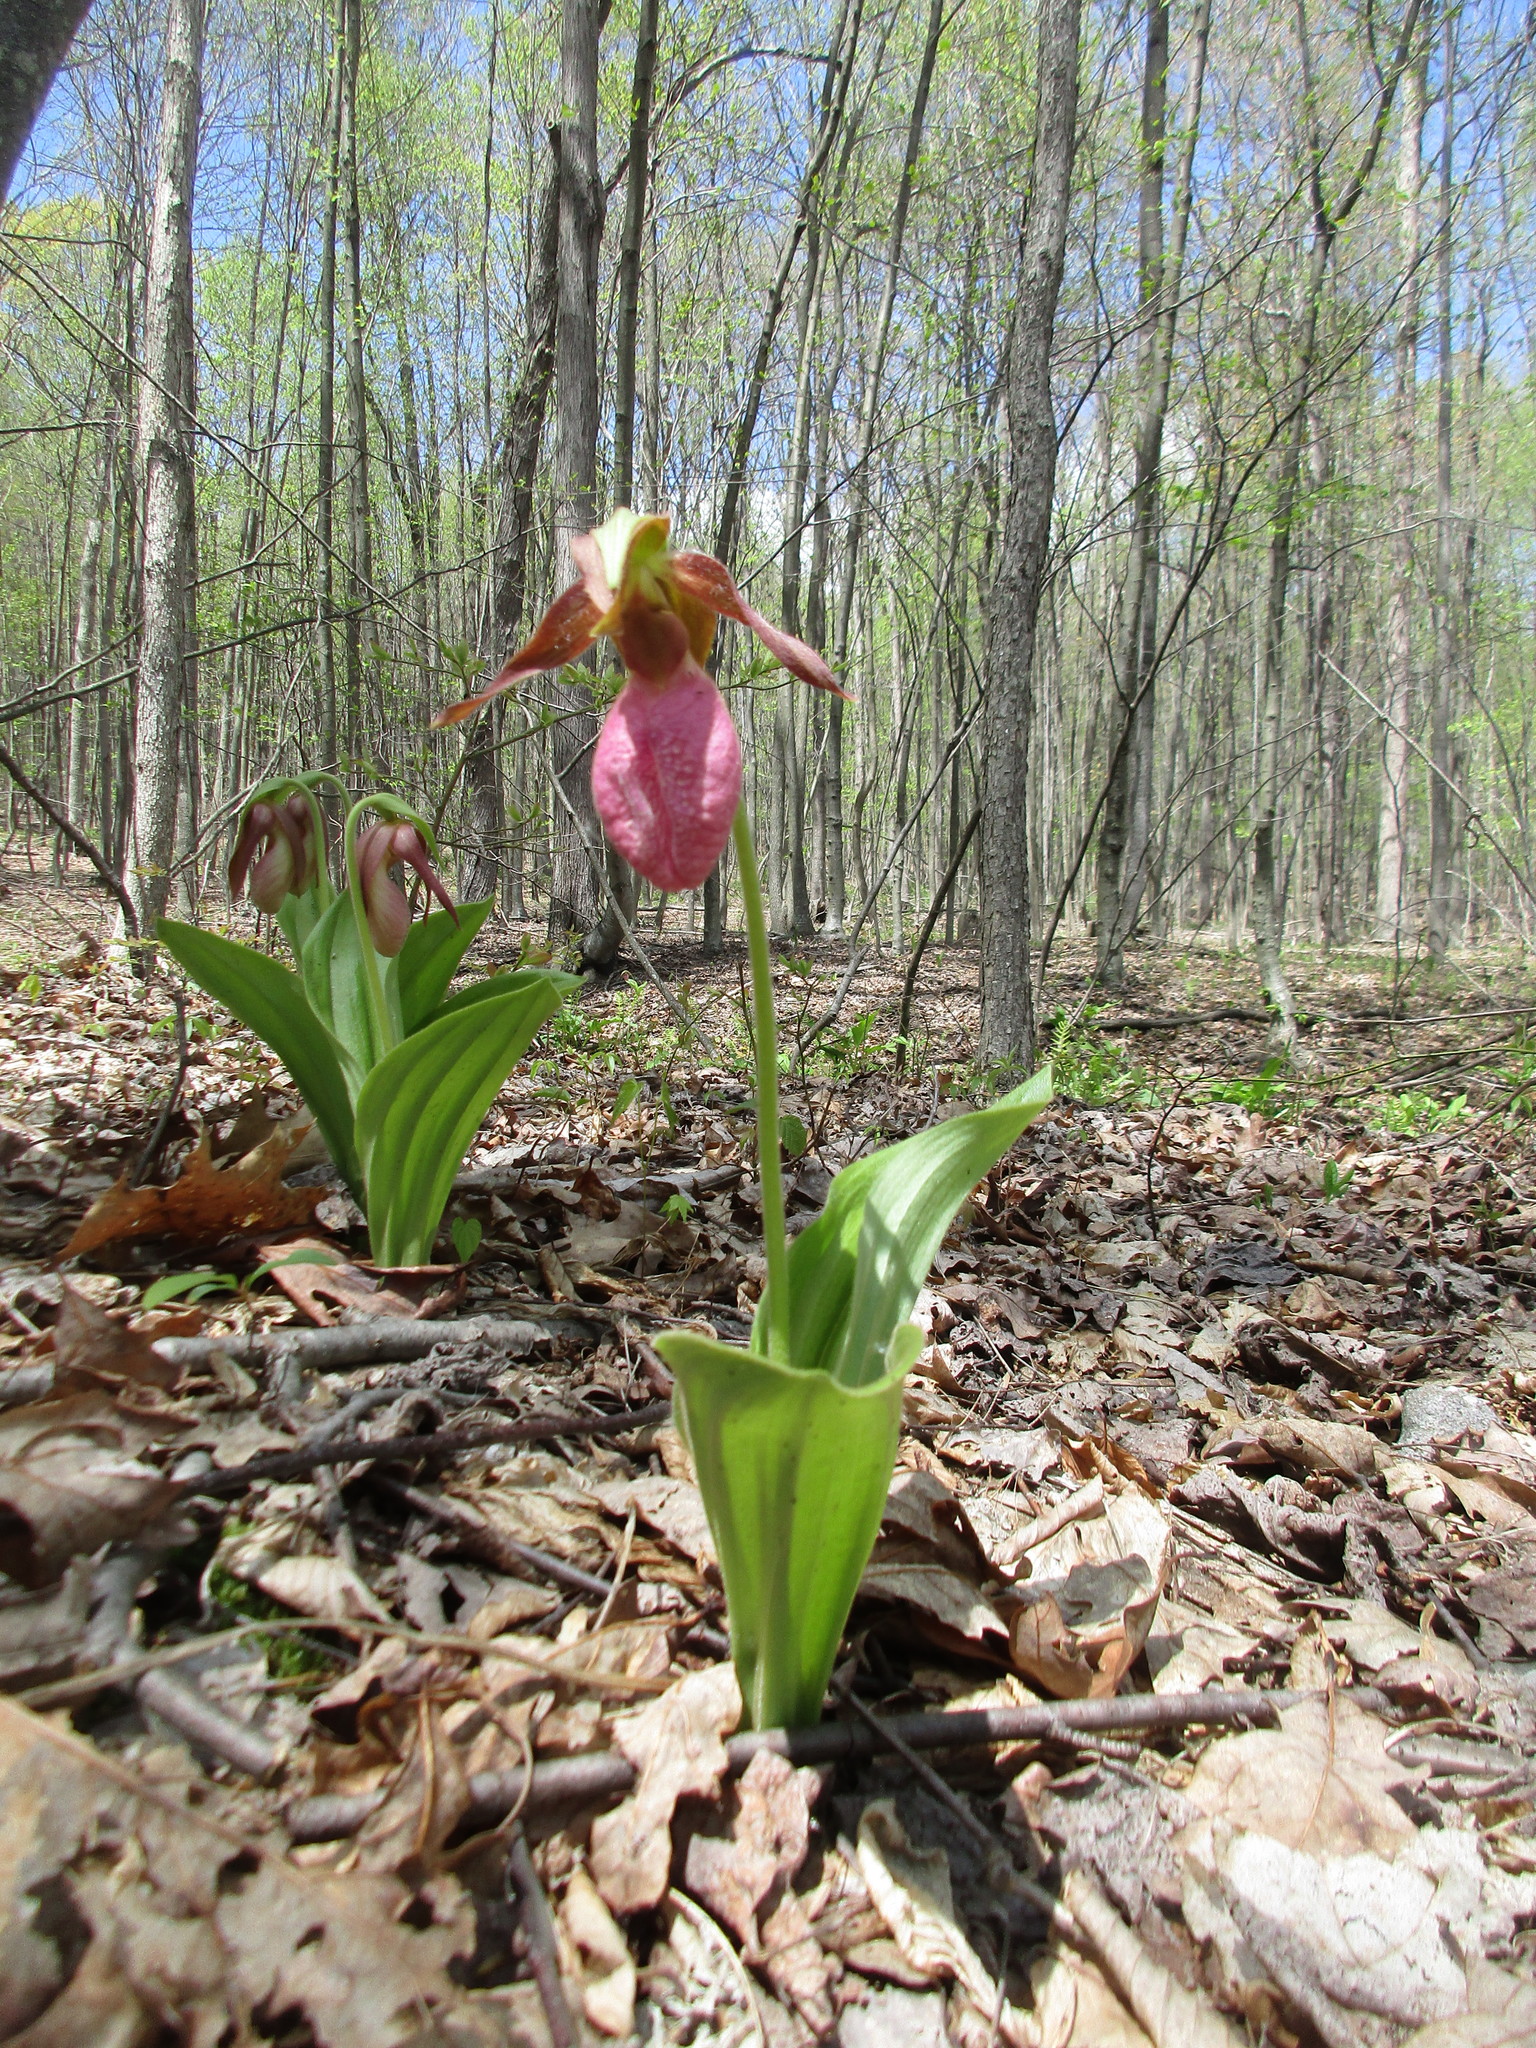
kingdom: Plantae
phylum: Tracheophyta
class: Liliopsida
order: Asparagales
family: Orchidaceae
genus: Cypripedium
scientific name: Cypripedium acaule
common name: Pink lady's-slipper
